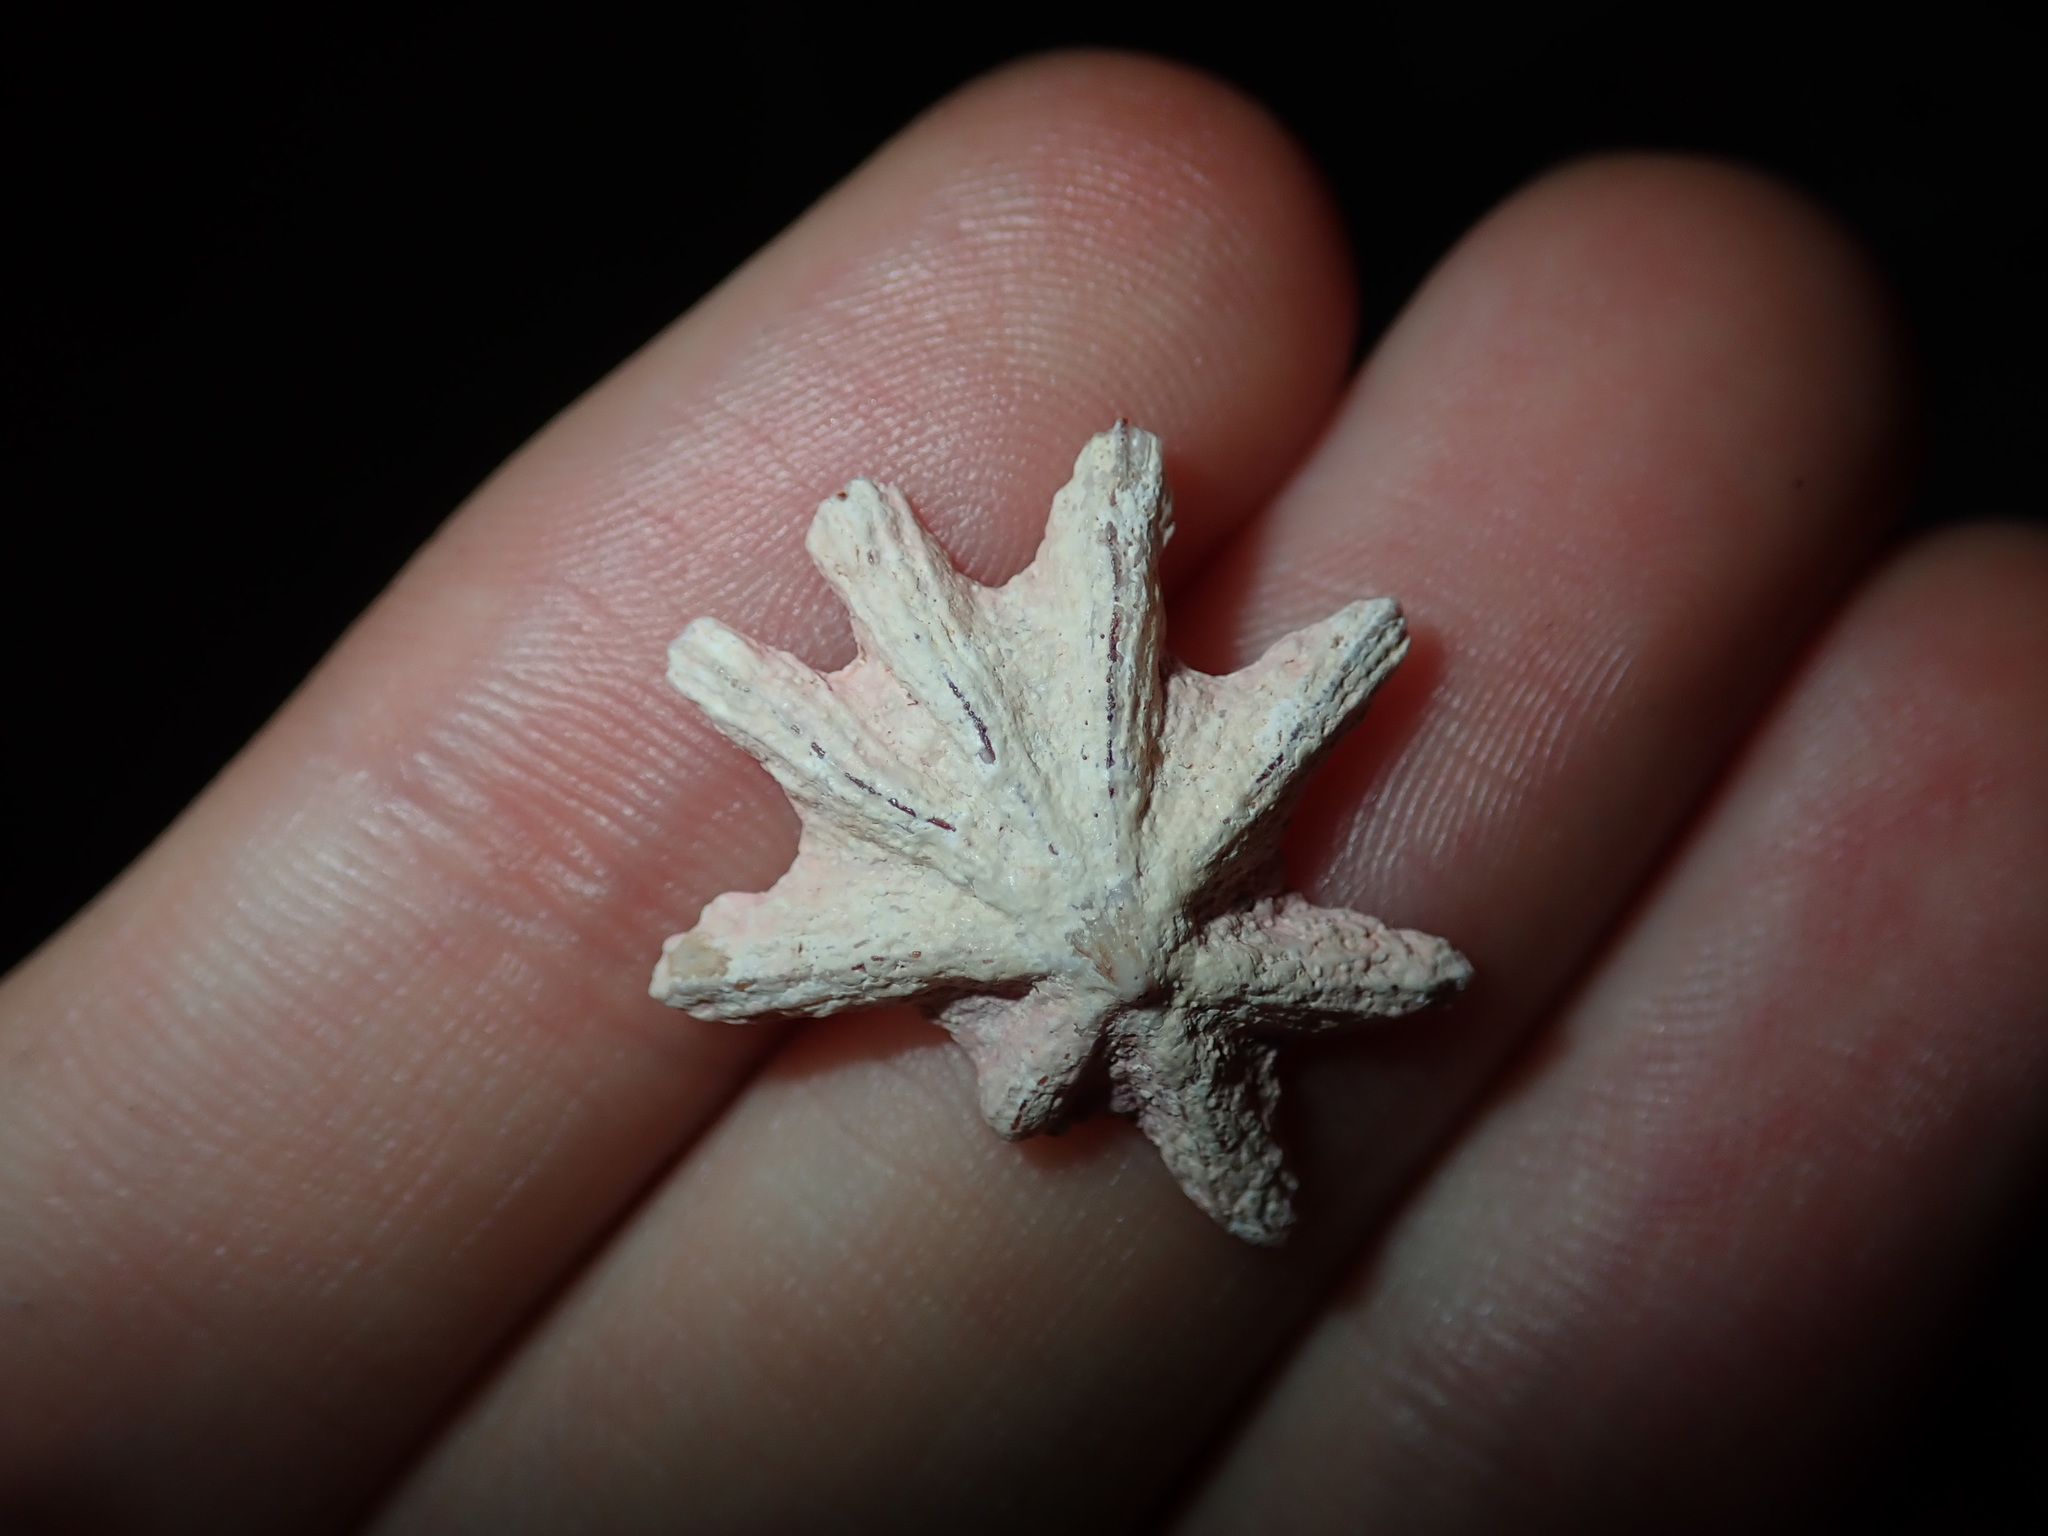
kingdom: Animalia
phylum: Mollusca
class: Gastropoda
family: Patellidae
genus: Scutellastra
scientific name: Scutellastra chapmani
